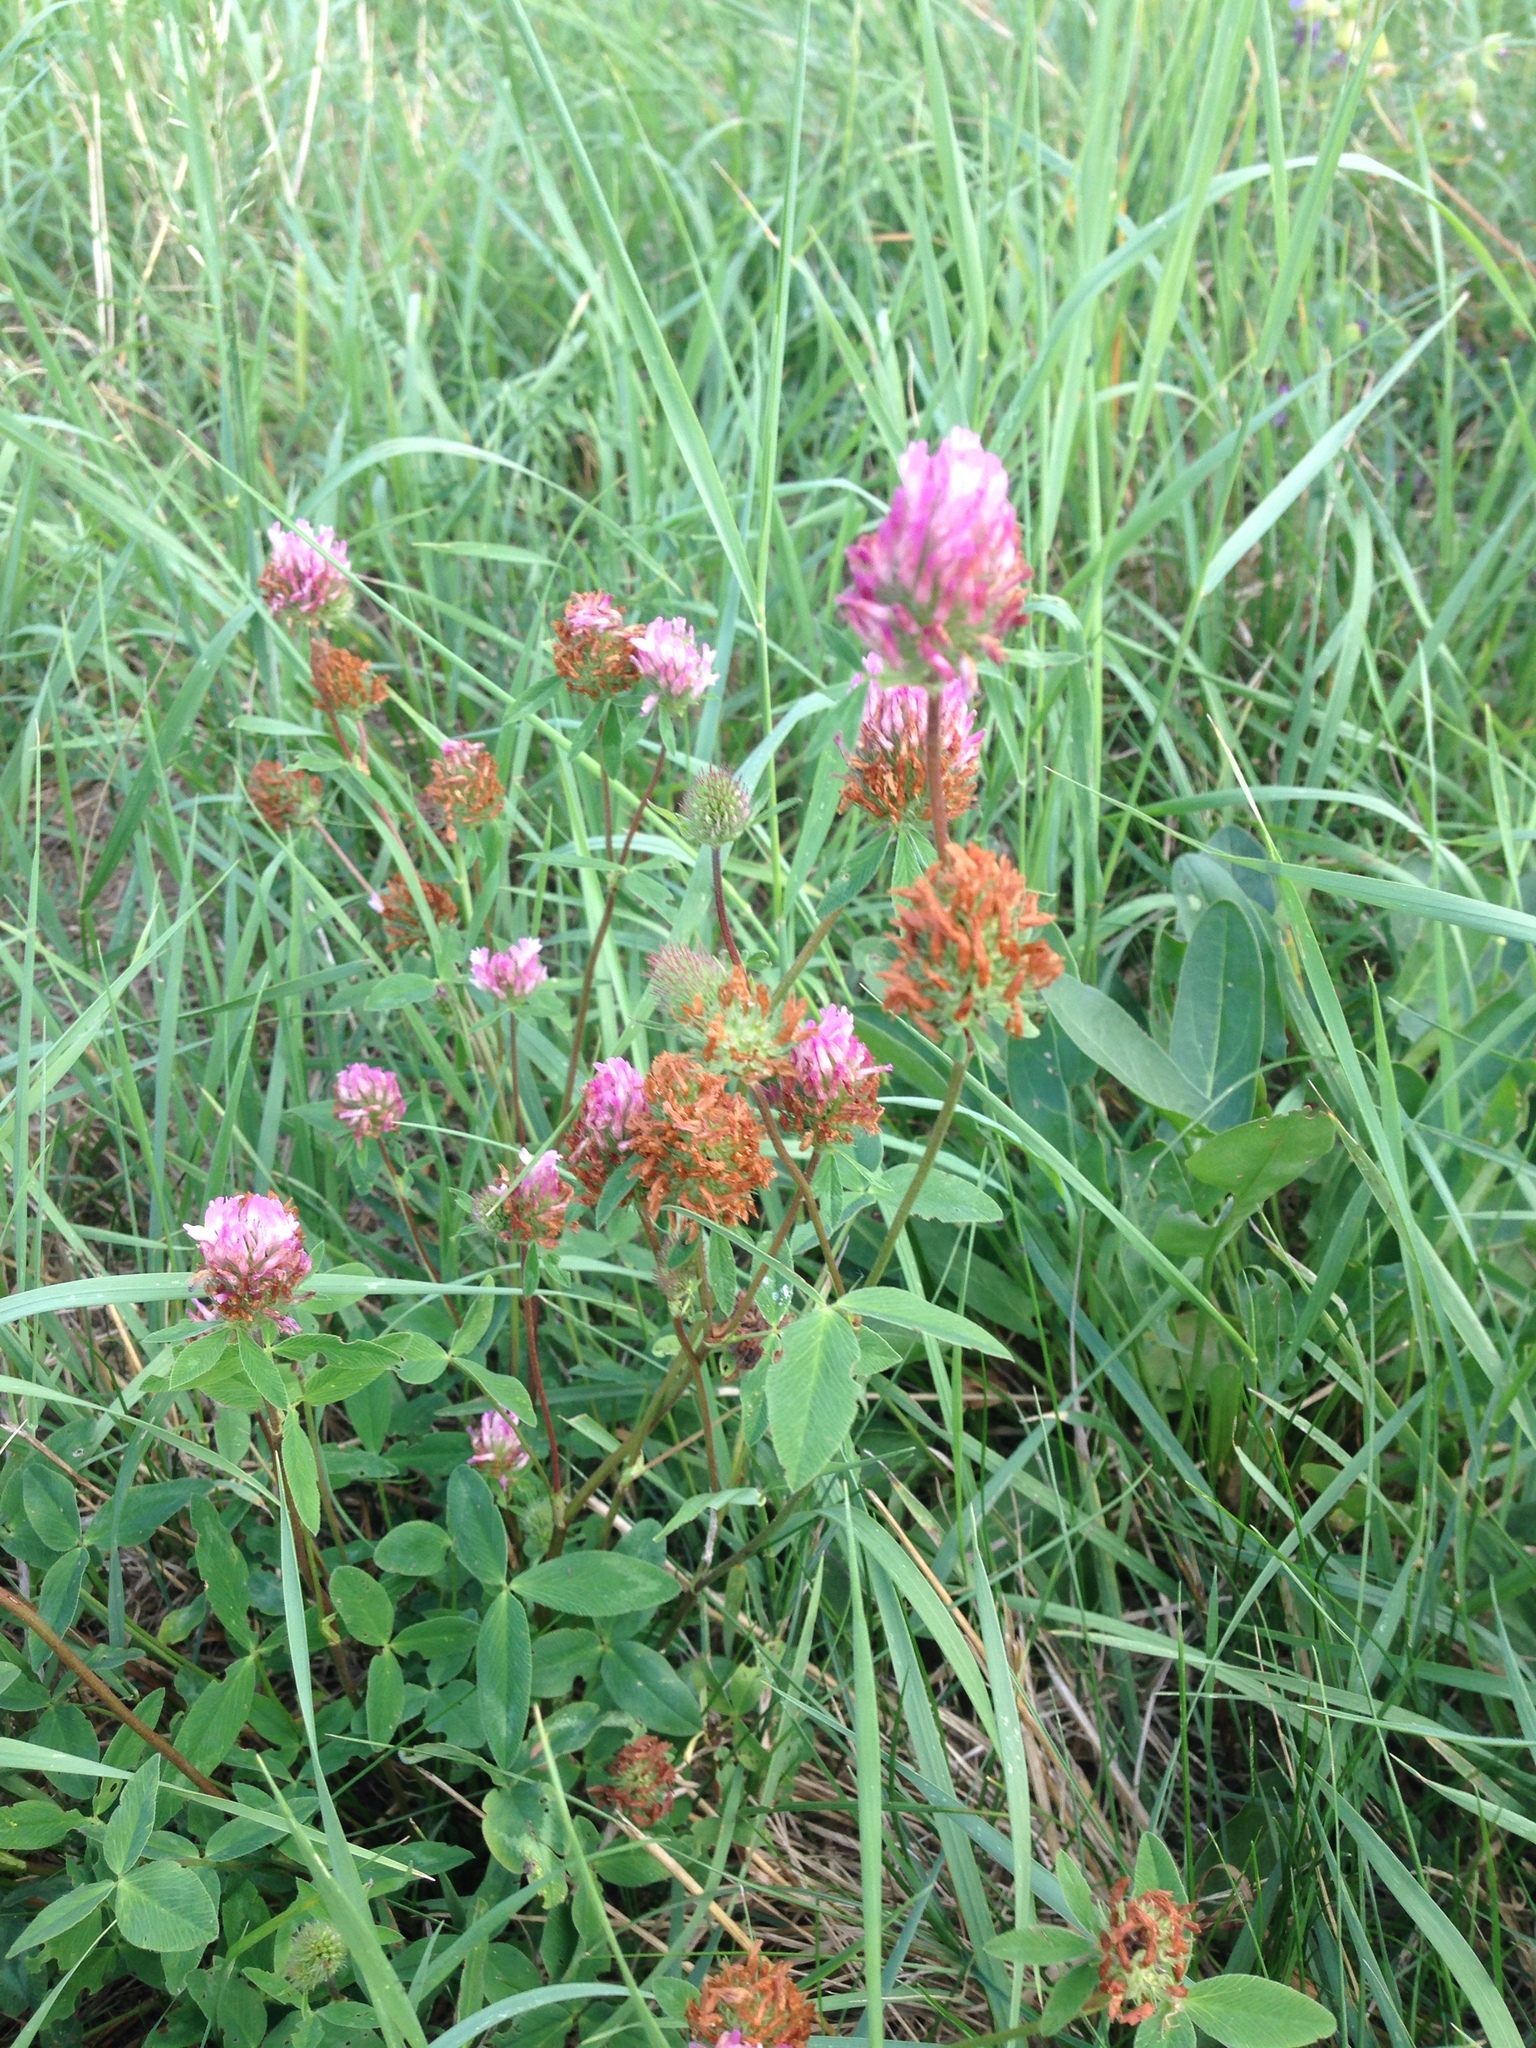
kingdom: Plantae
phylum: Tracheophyta
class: Magnoliopsida
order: Fabales
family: Fabaceae
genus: Trifolium
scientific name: Trifolium medium
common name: Zigzag clover
